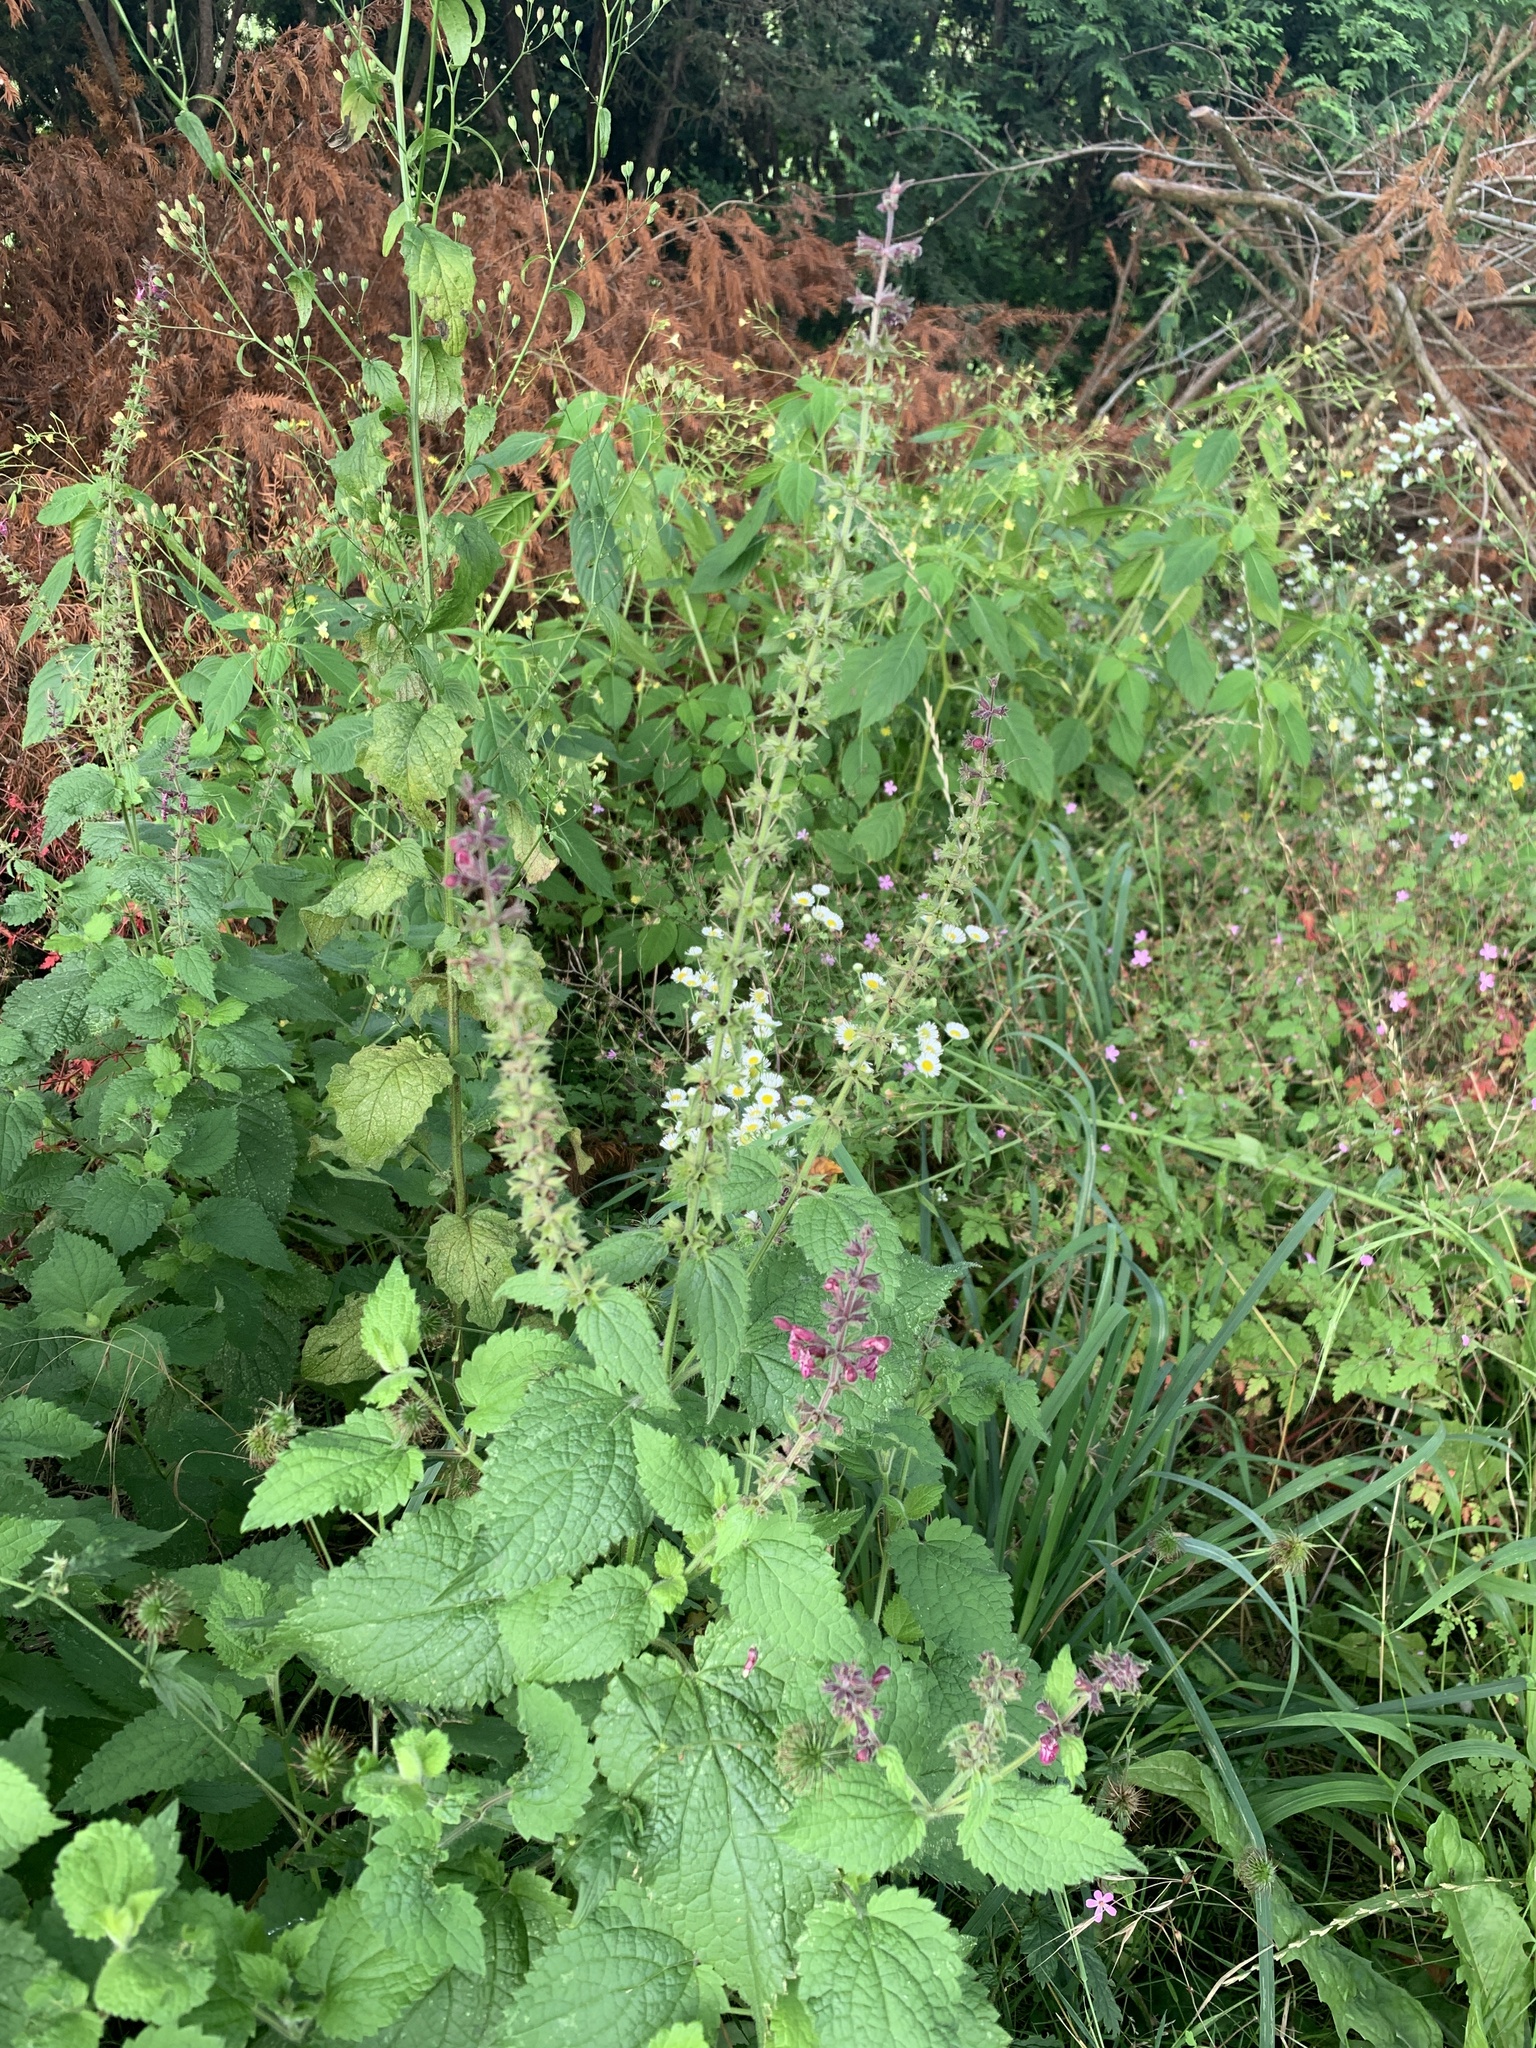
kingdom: Plantae
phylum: Tracheophyta
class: Magnoliopsida
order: Lamiales
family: Lamiaceae
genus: Stachys
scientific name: Stachys sylvatica
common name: Hedge woundwort
